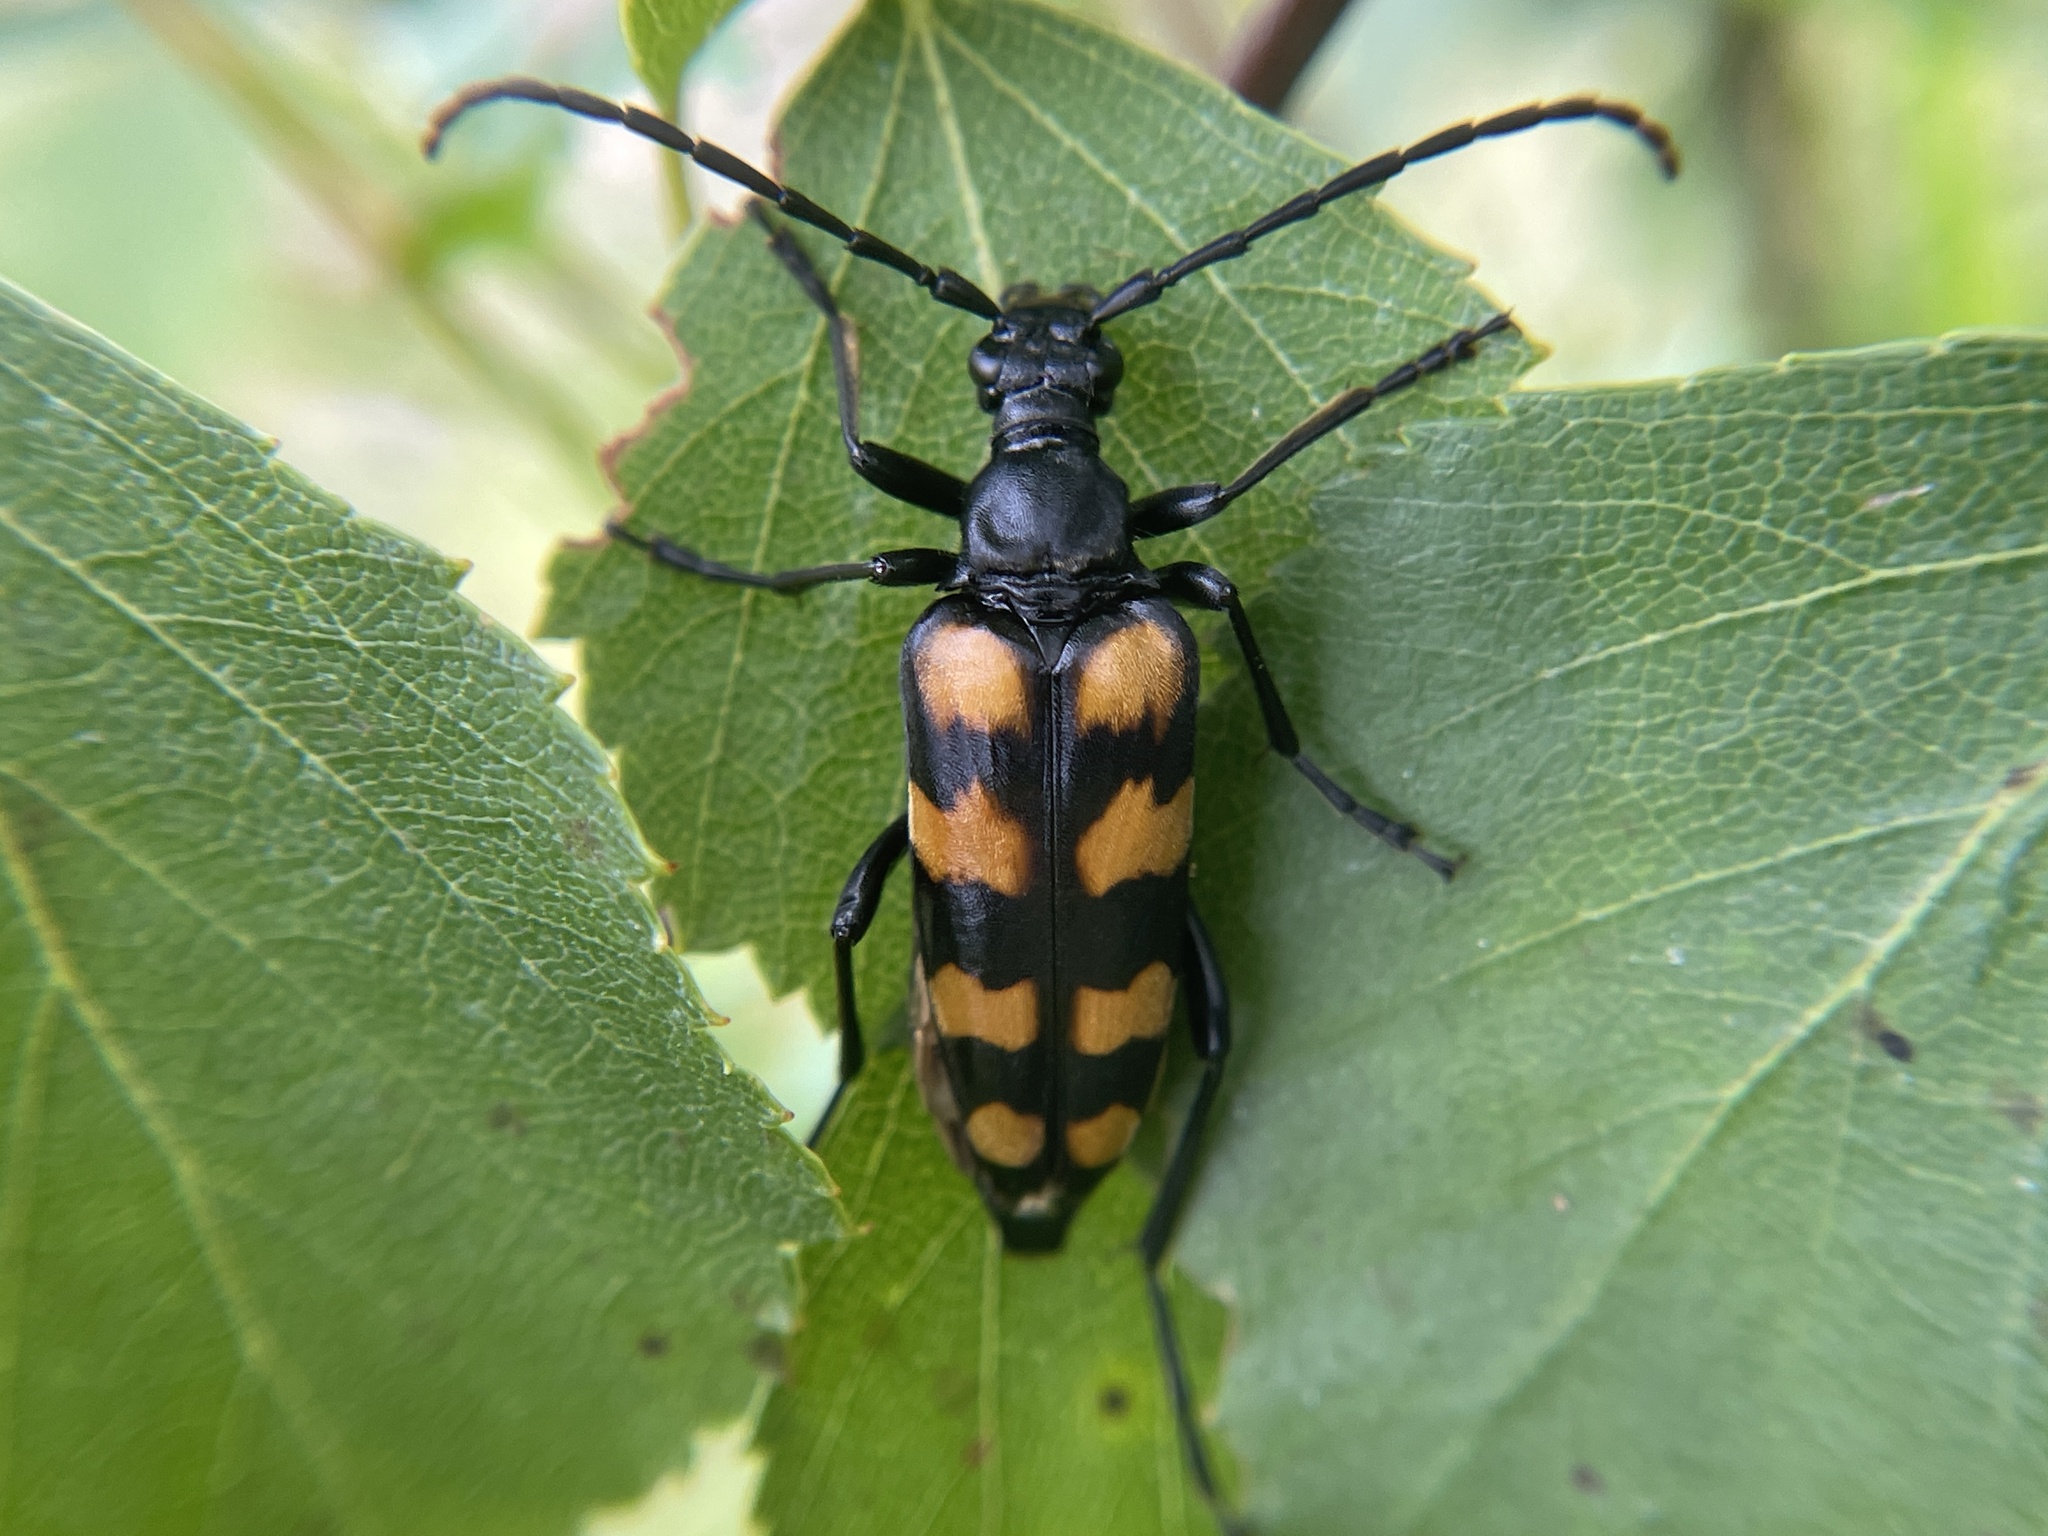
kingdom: Animalia
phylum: Arthropoda
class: Insecta
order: Coleoptera
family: Cerambycidae
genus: Leptura
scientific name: Leptura quadrifasciata
